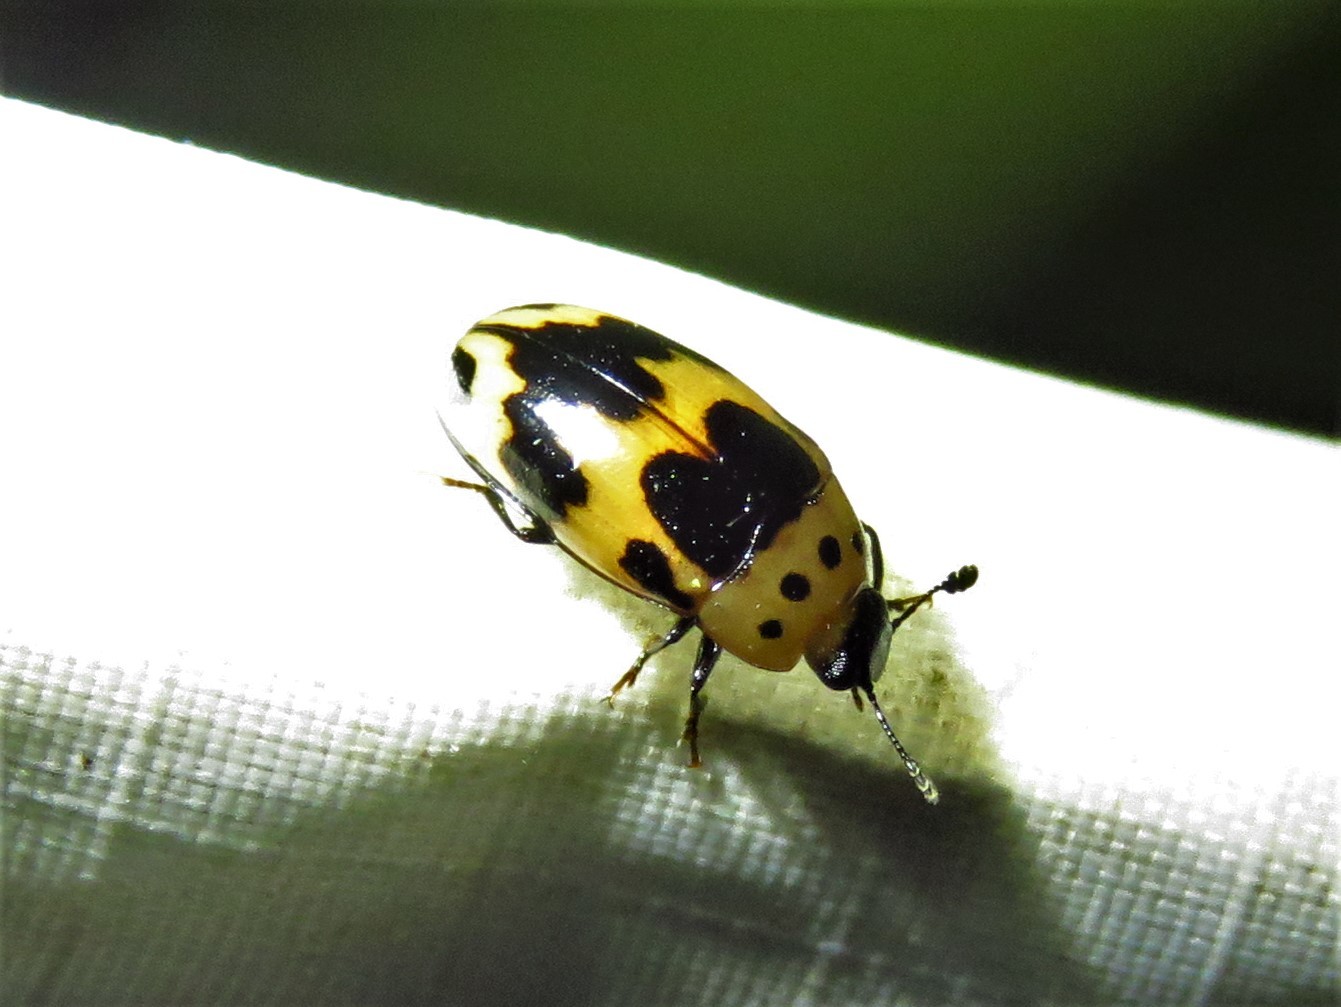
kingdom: Animalia
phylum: Arthropoda
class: Insecta
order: Coleoptera
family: Erotylidae
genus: Ischyrus
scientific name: Ischyrus quadripunctatus
